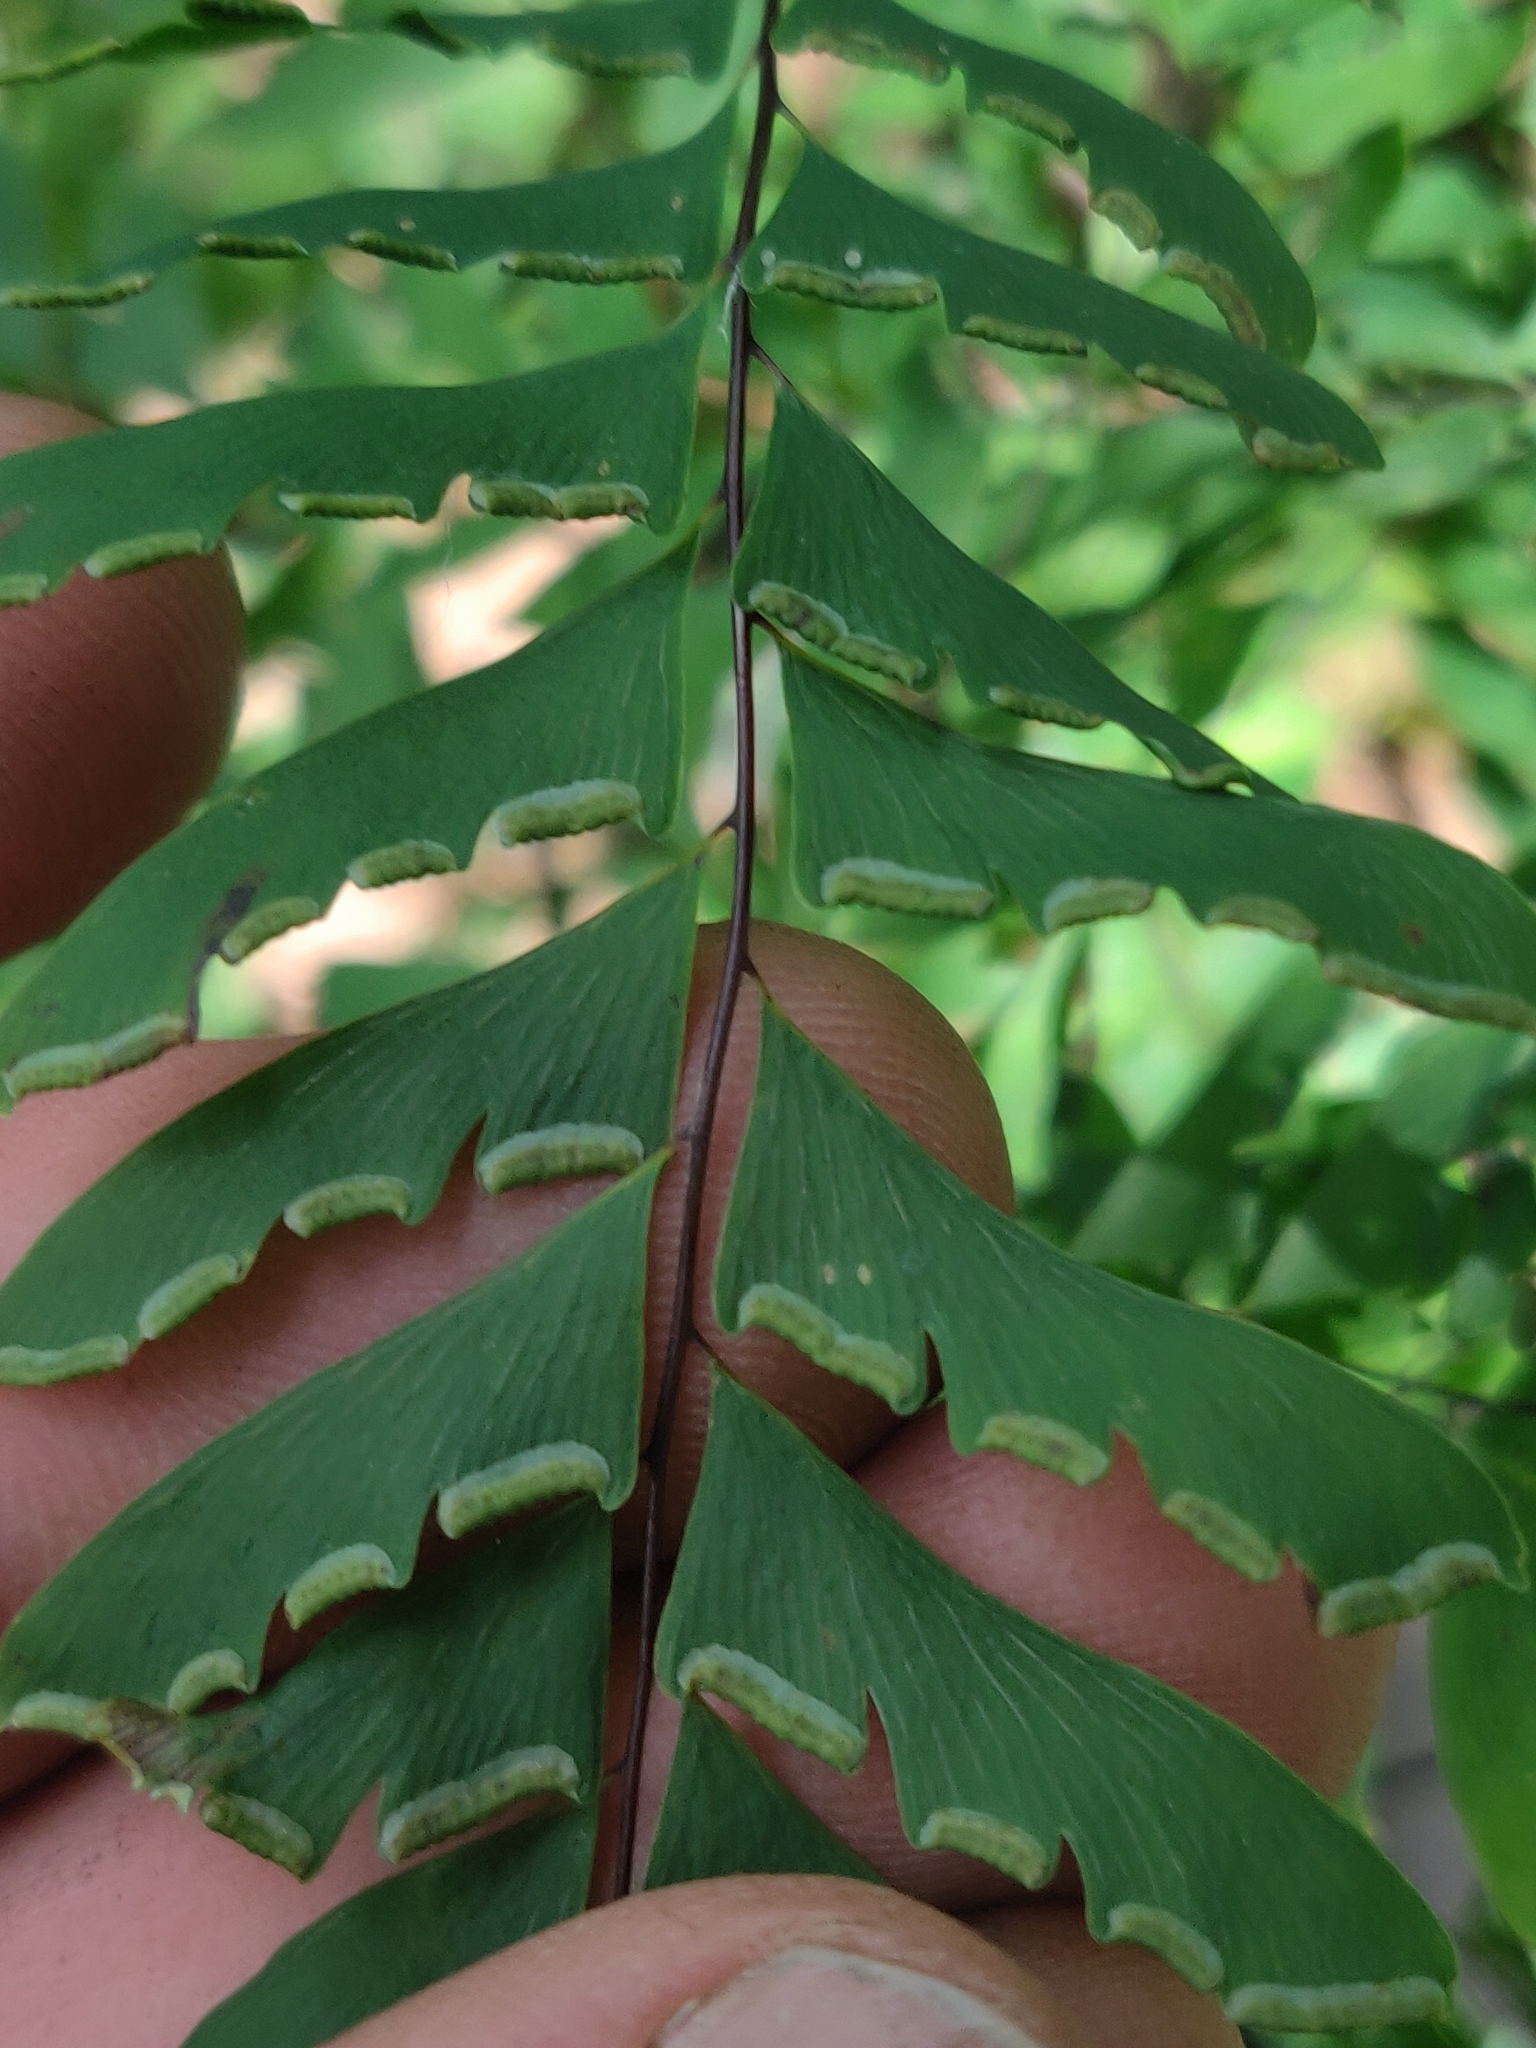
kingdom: Plantae
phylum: Tracheophyta
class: Polypodiopsida
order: Polypodiales
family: Pteridaceae
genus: Adiantum
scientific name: Adiantum pedatum
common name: Five-finger fern
